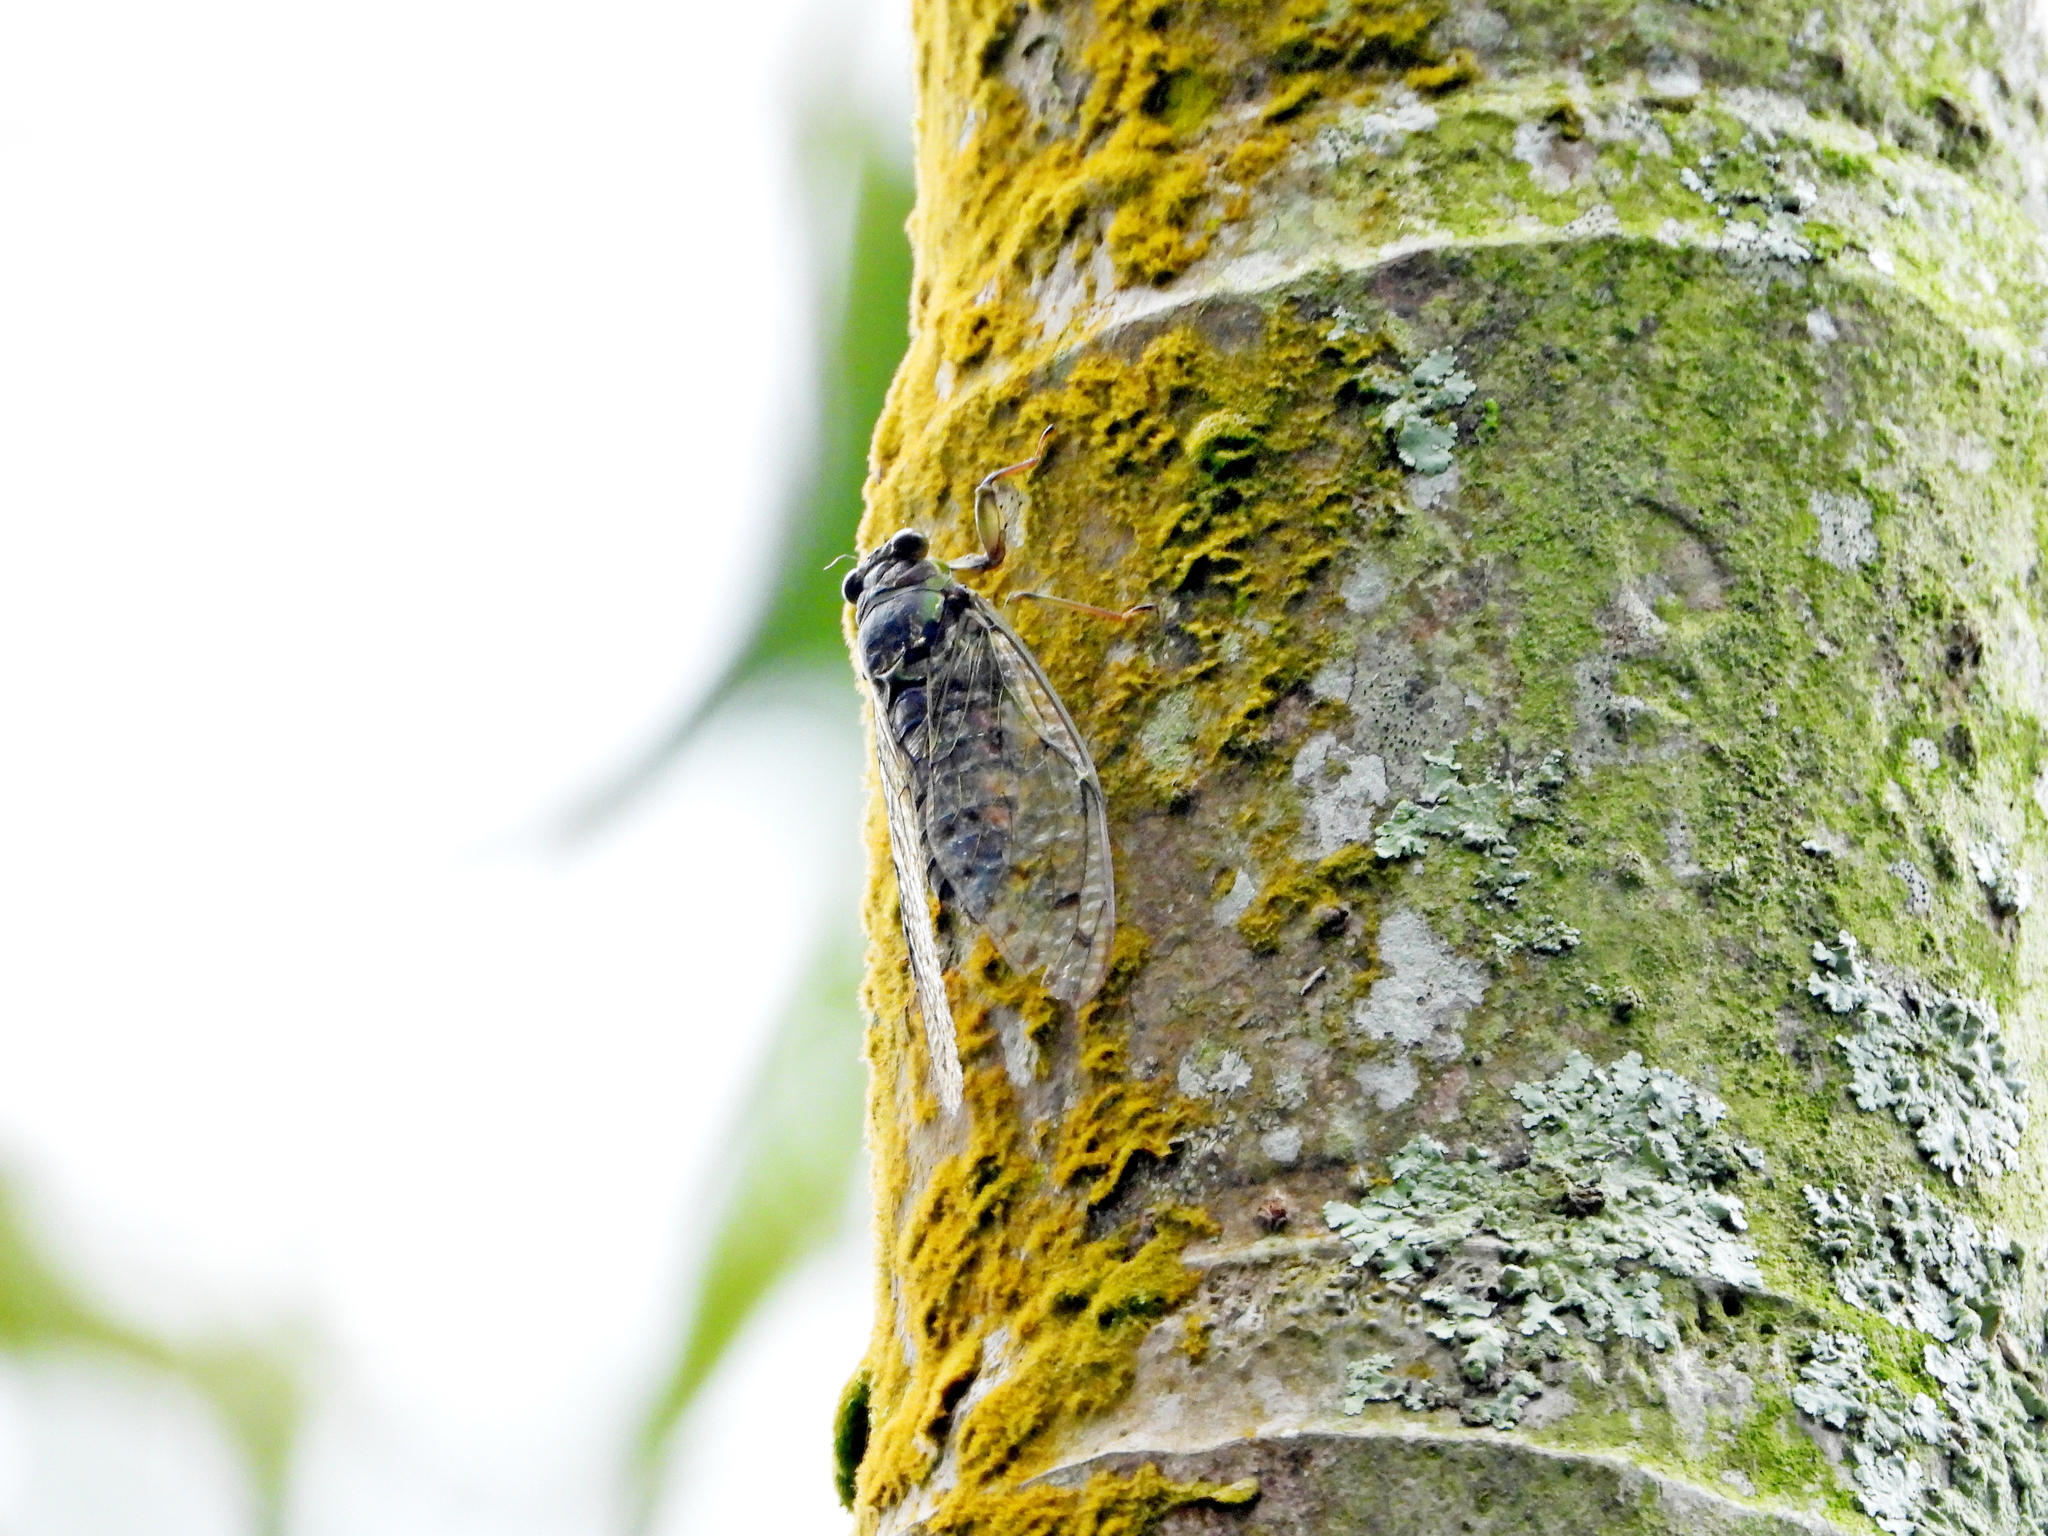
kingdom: Animalia
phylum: Arthropoda
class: Insecta
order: Hemiptera
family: Cicadidae
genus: Tanna
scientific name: Tanna taipinensis
